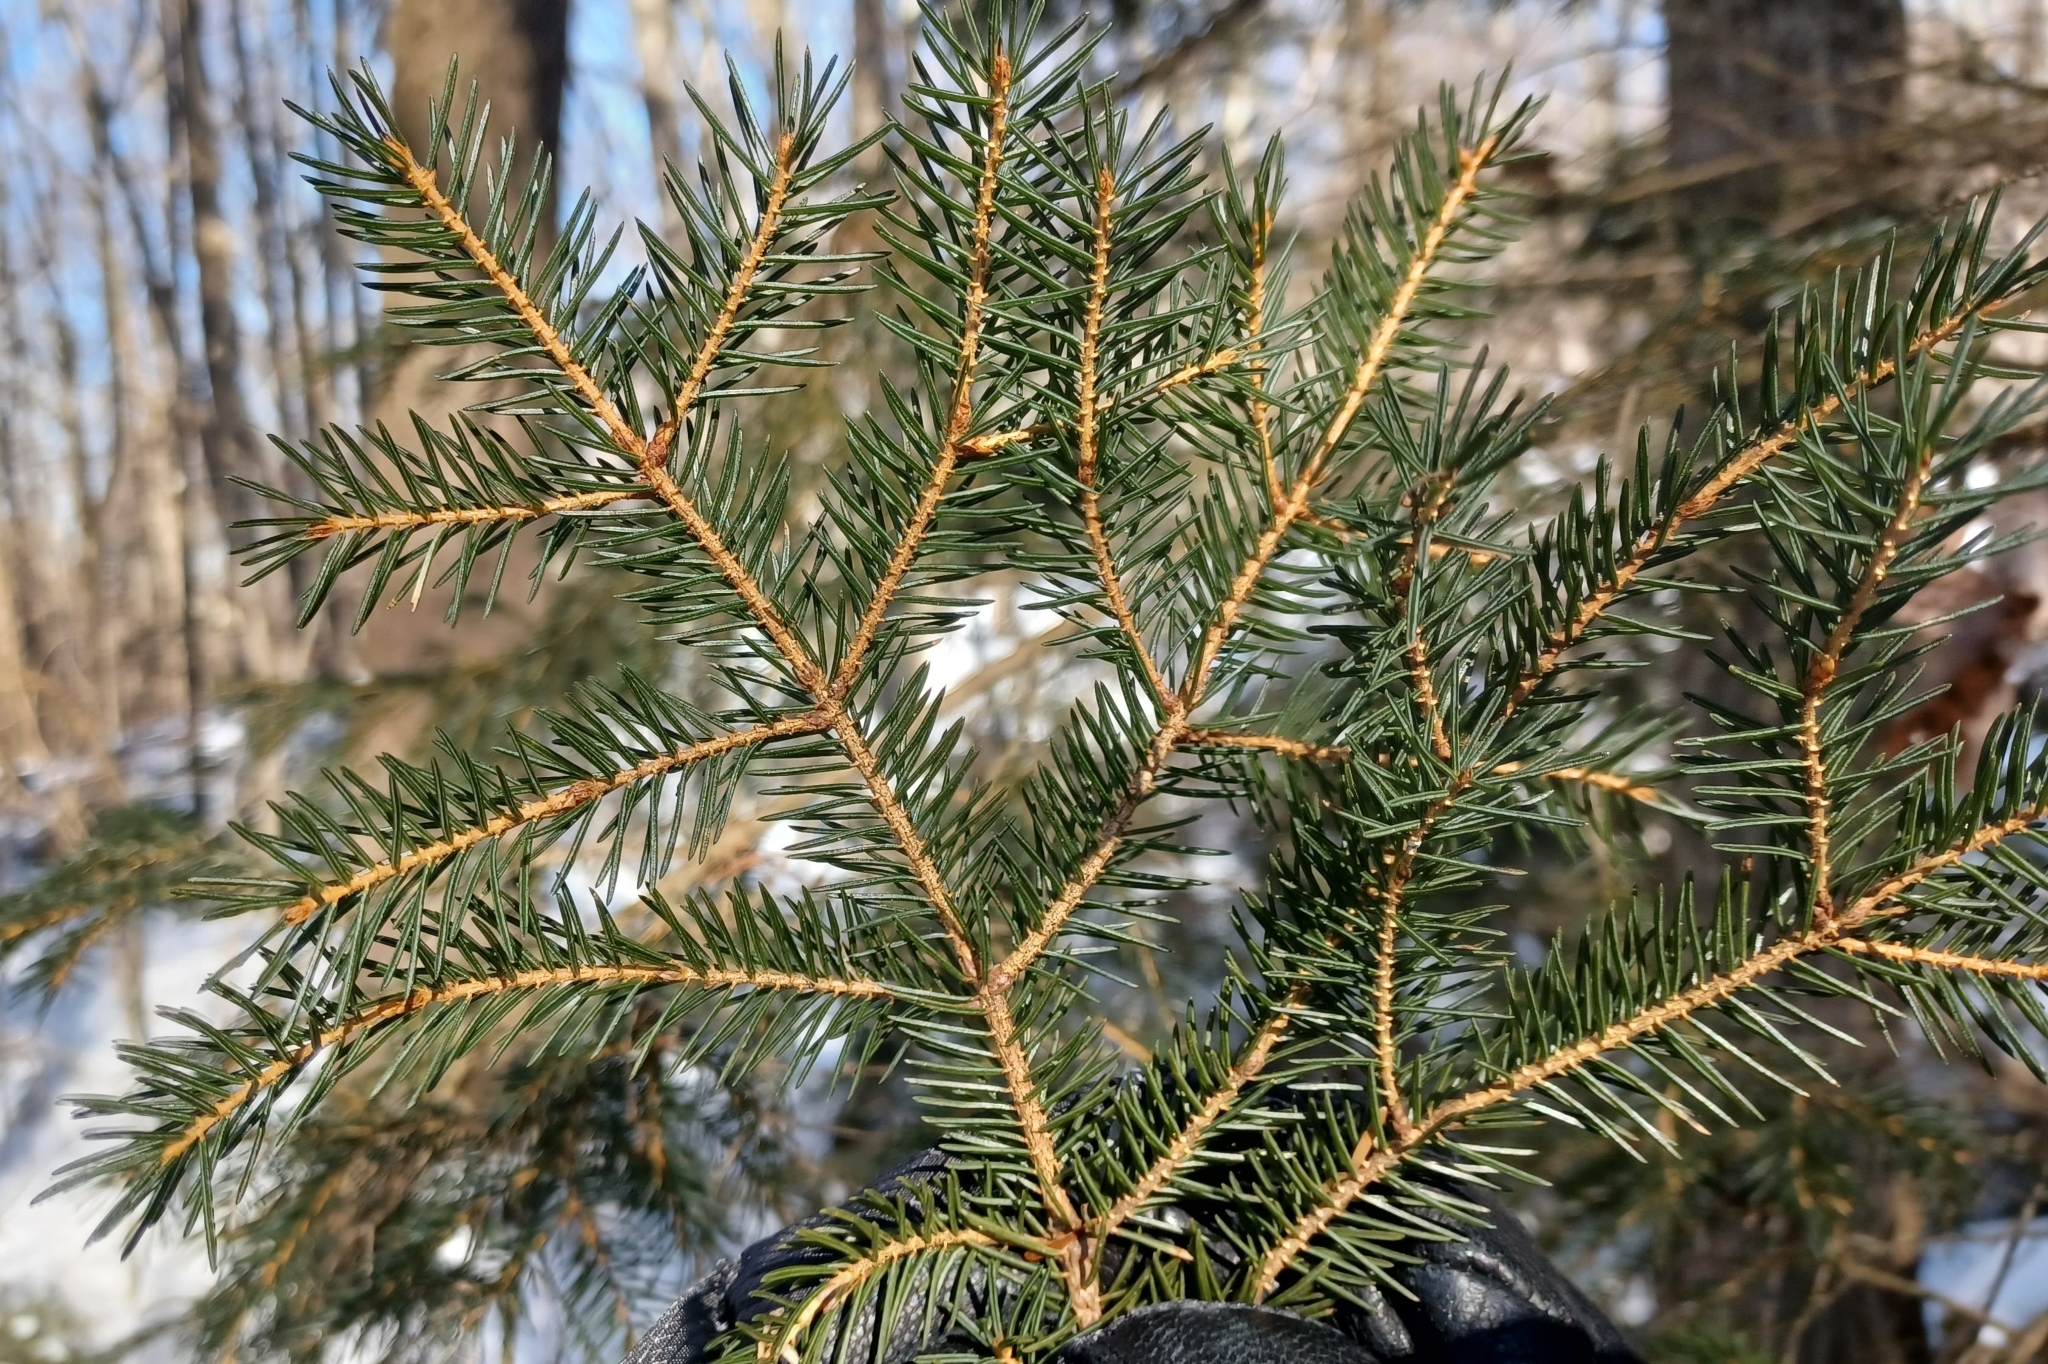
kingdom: Plantae
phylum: Tracheophyta
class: Pinopsida
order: Pinales
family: Pinaceae
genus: Picea
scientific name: Picea rubens
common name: Red spruce
